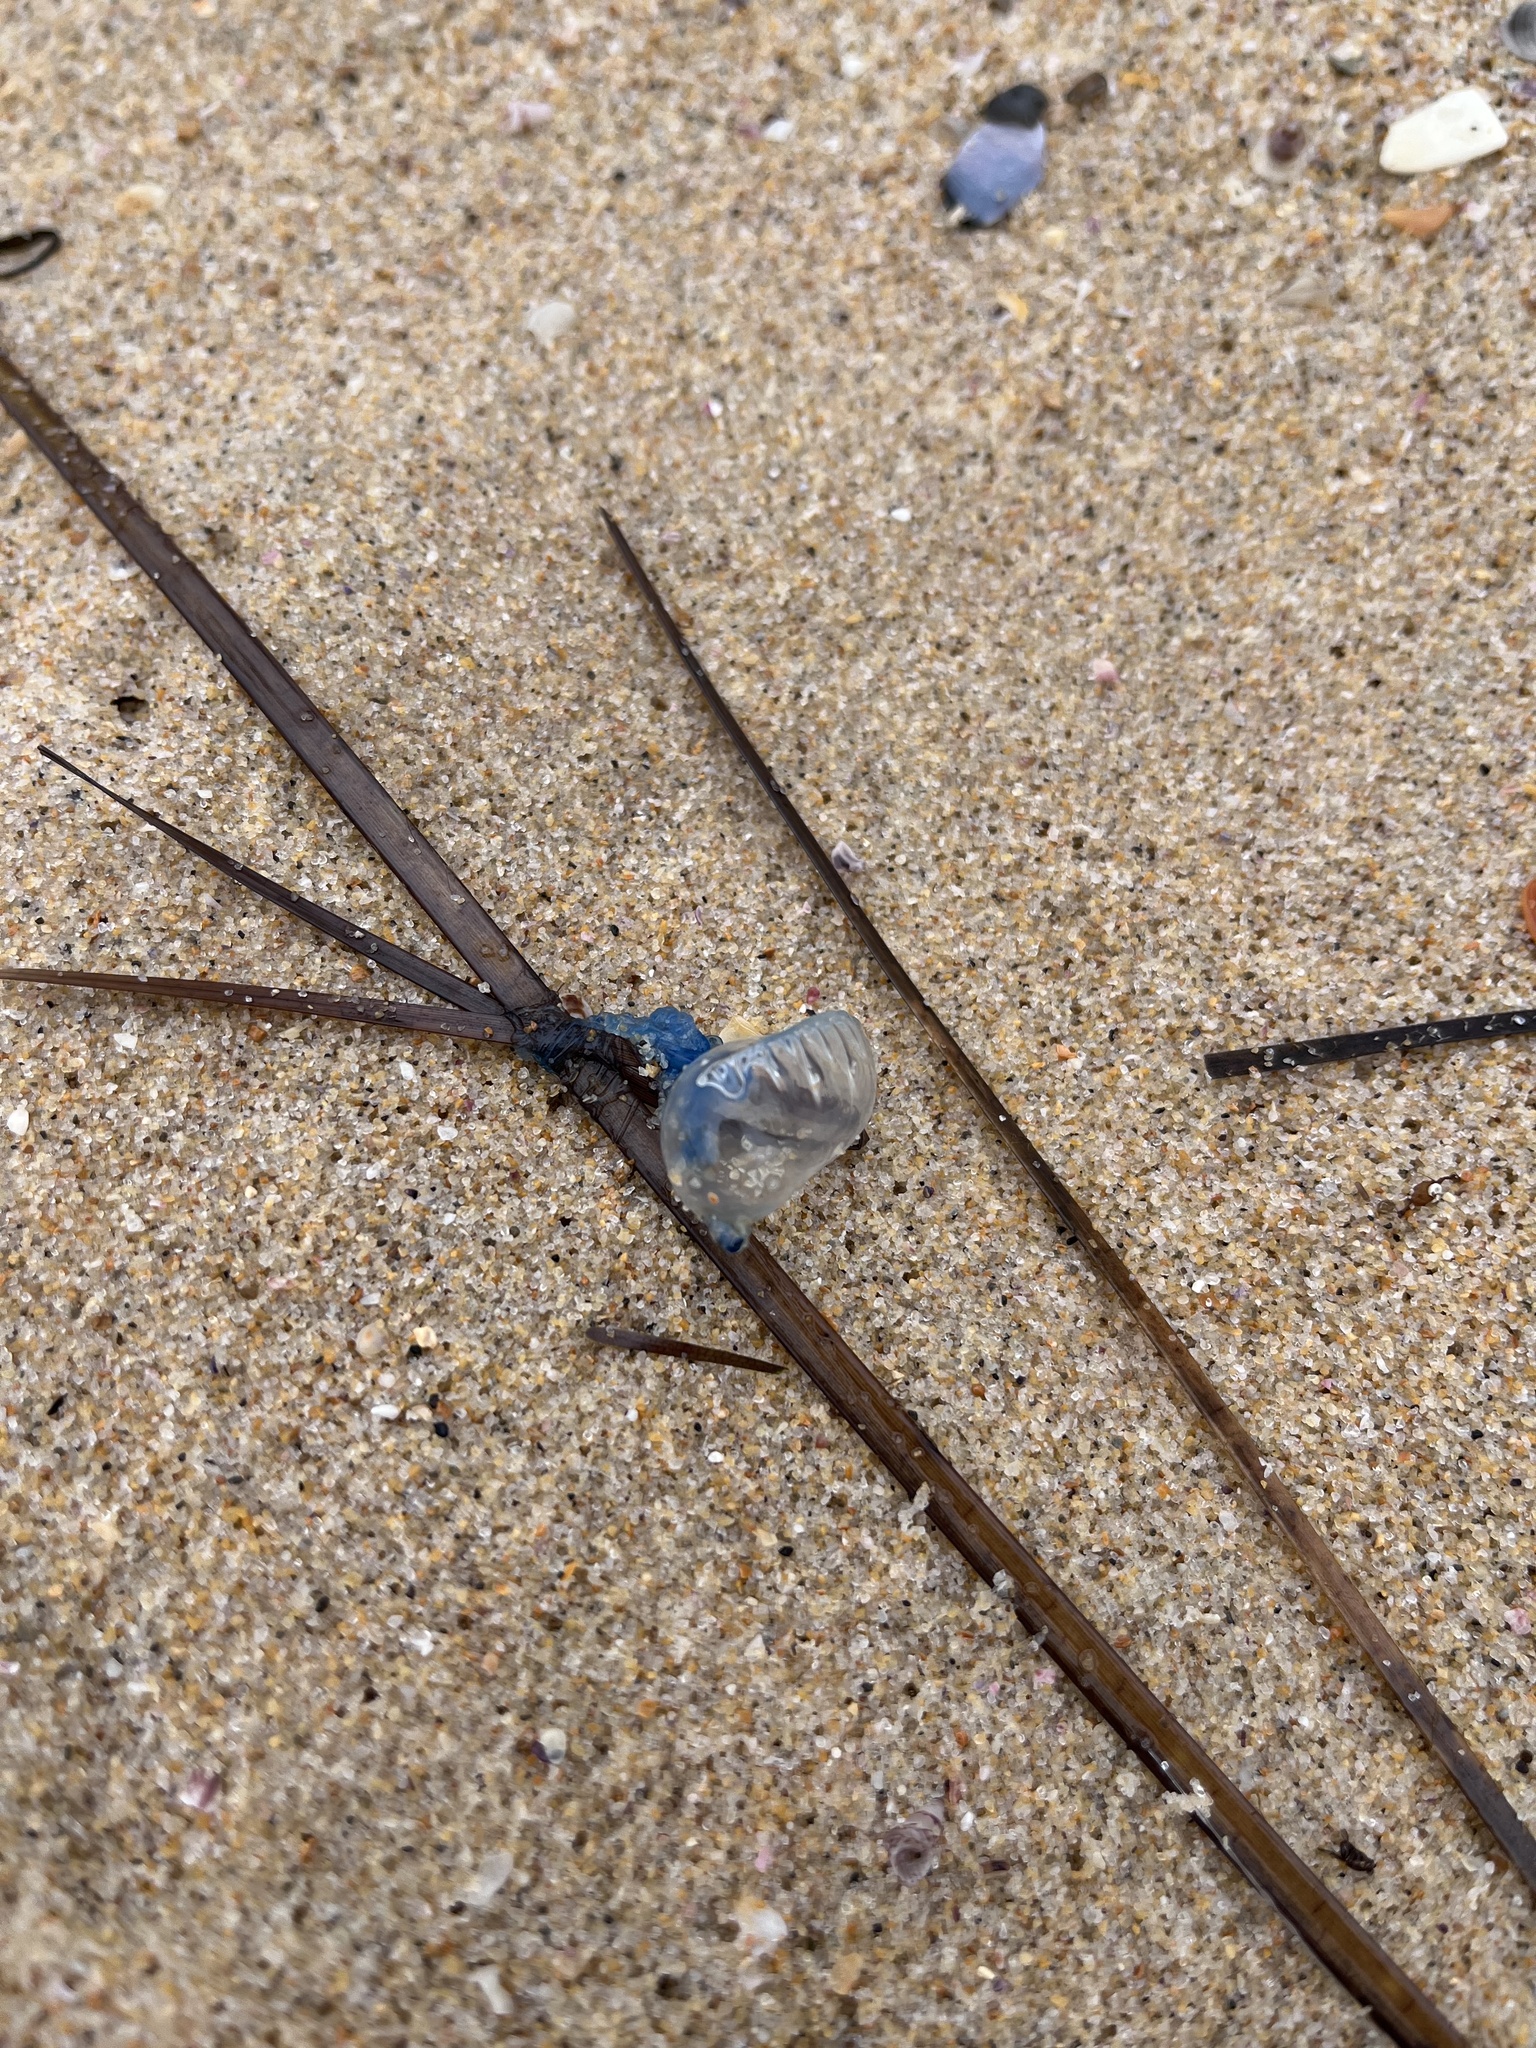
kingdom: Animalia
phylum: Cnidaria
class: Hydrozoa
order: Siphonophorae
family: Physaliidae
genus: Physalia
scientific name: Physalia physalis
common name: Portuguese man-of-war
